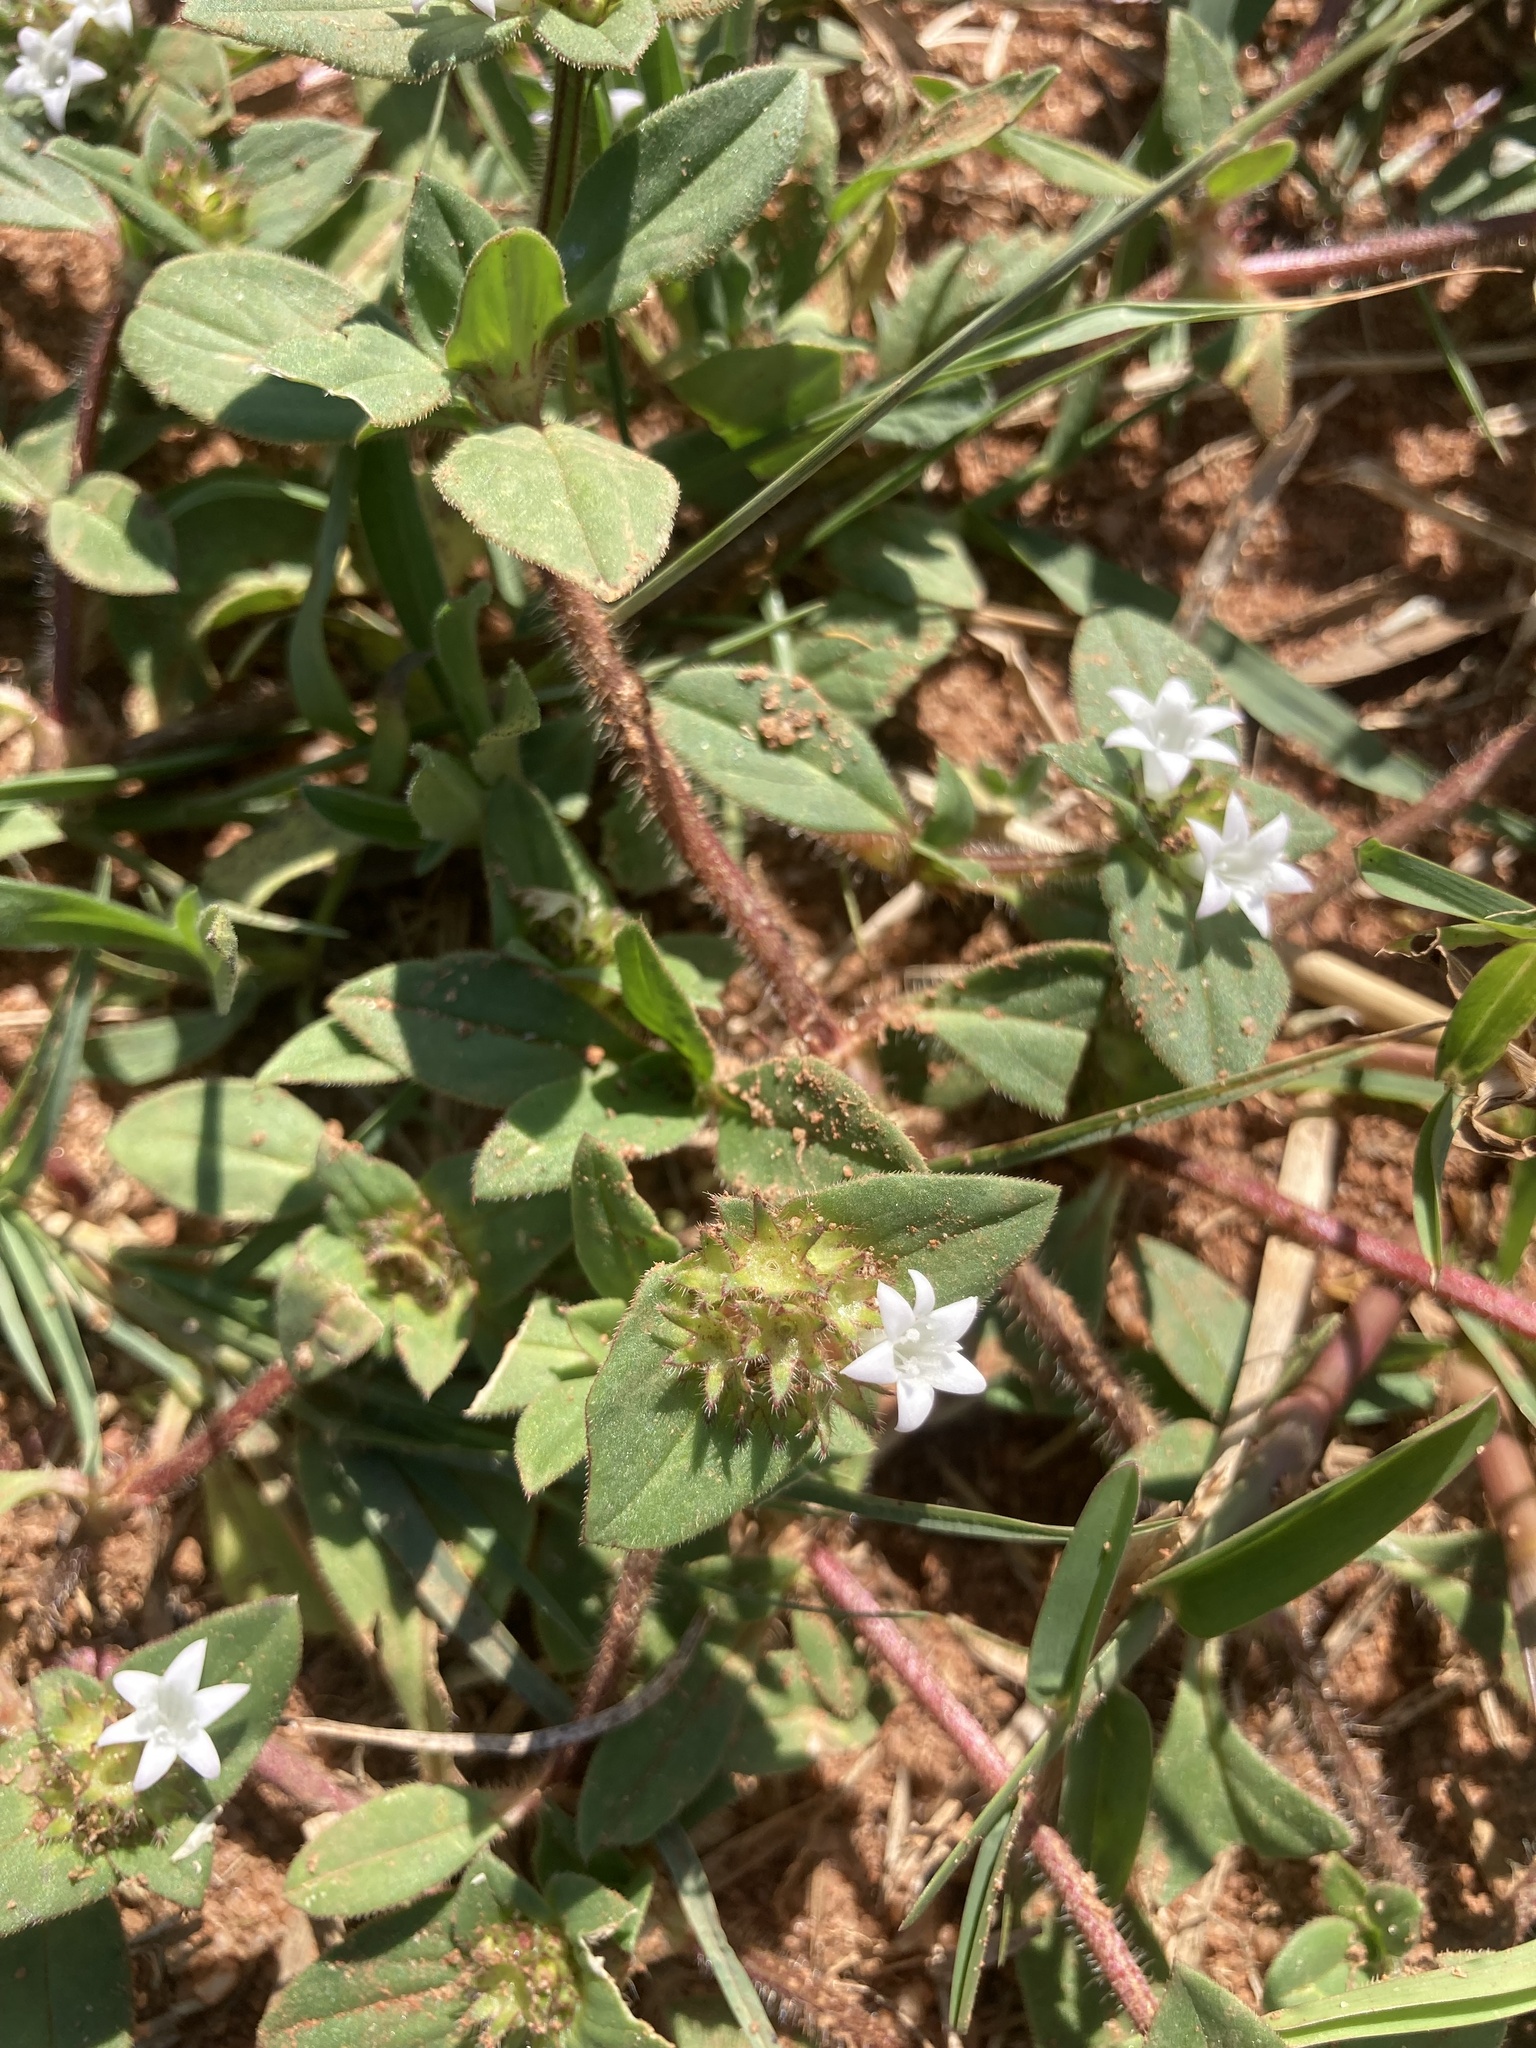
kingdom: Plantae
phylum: Tracheophyta
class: Magnoliopsida
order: Gentianales
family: Rubiaceae
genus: Richardia
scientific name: Richardia brasiliensis
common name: Tropical mexican clover
